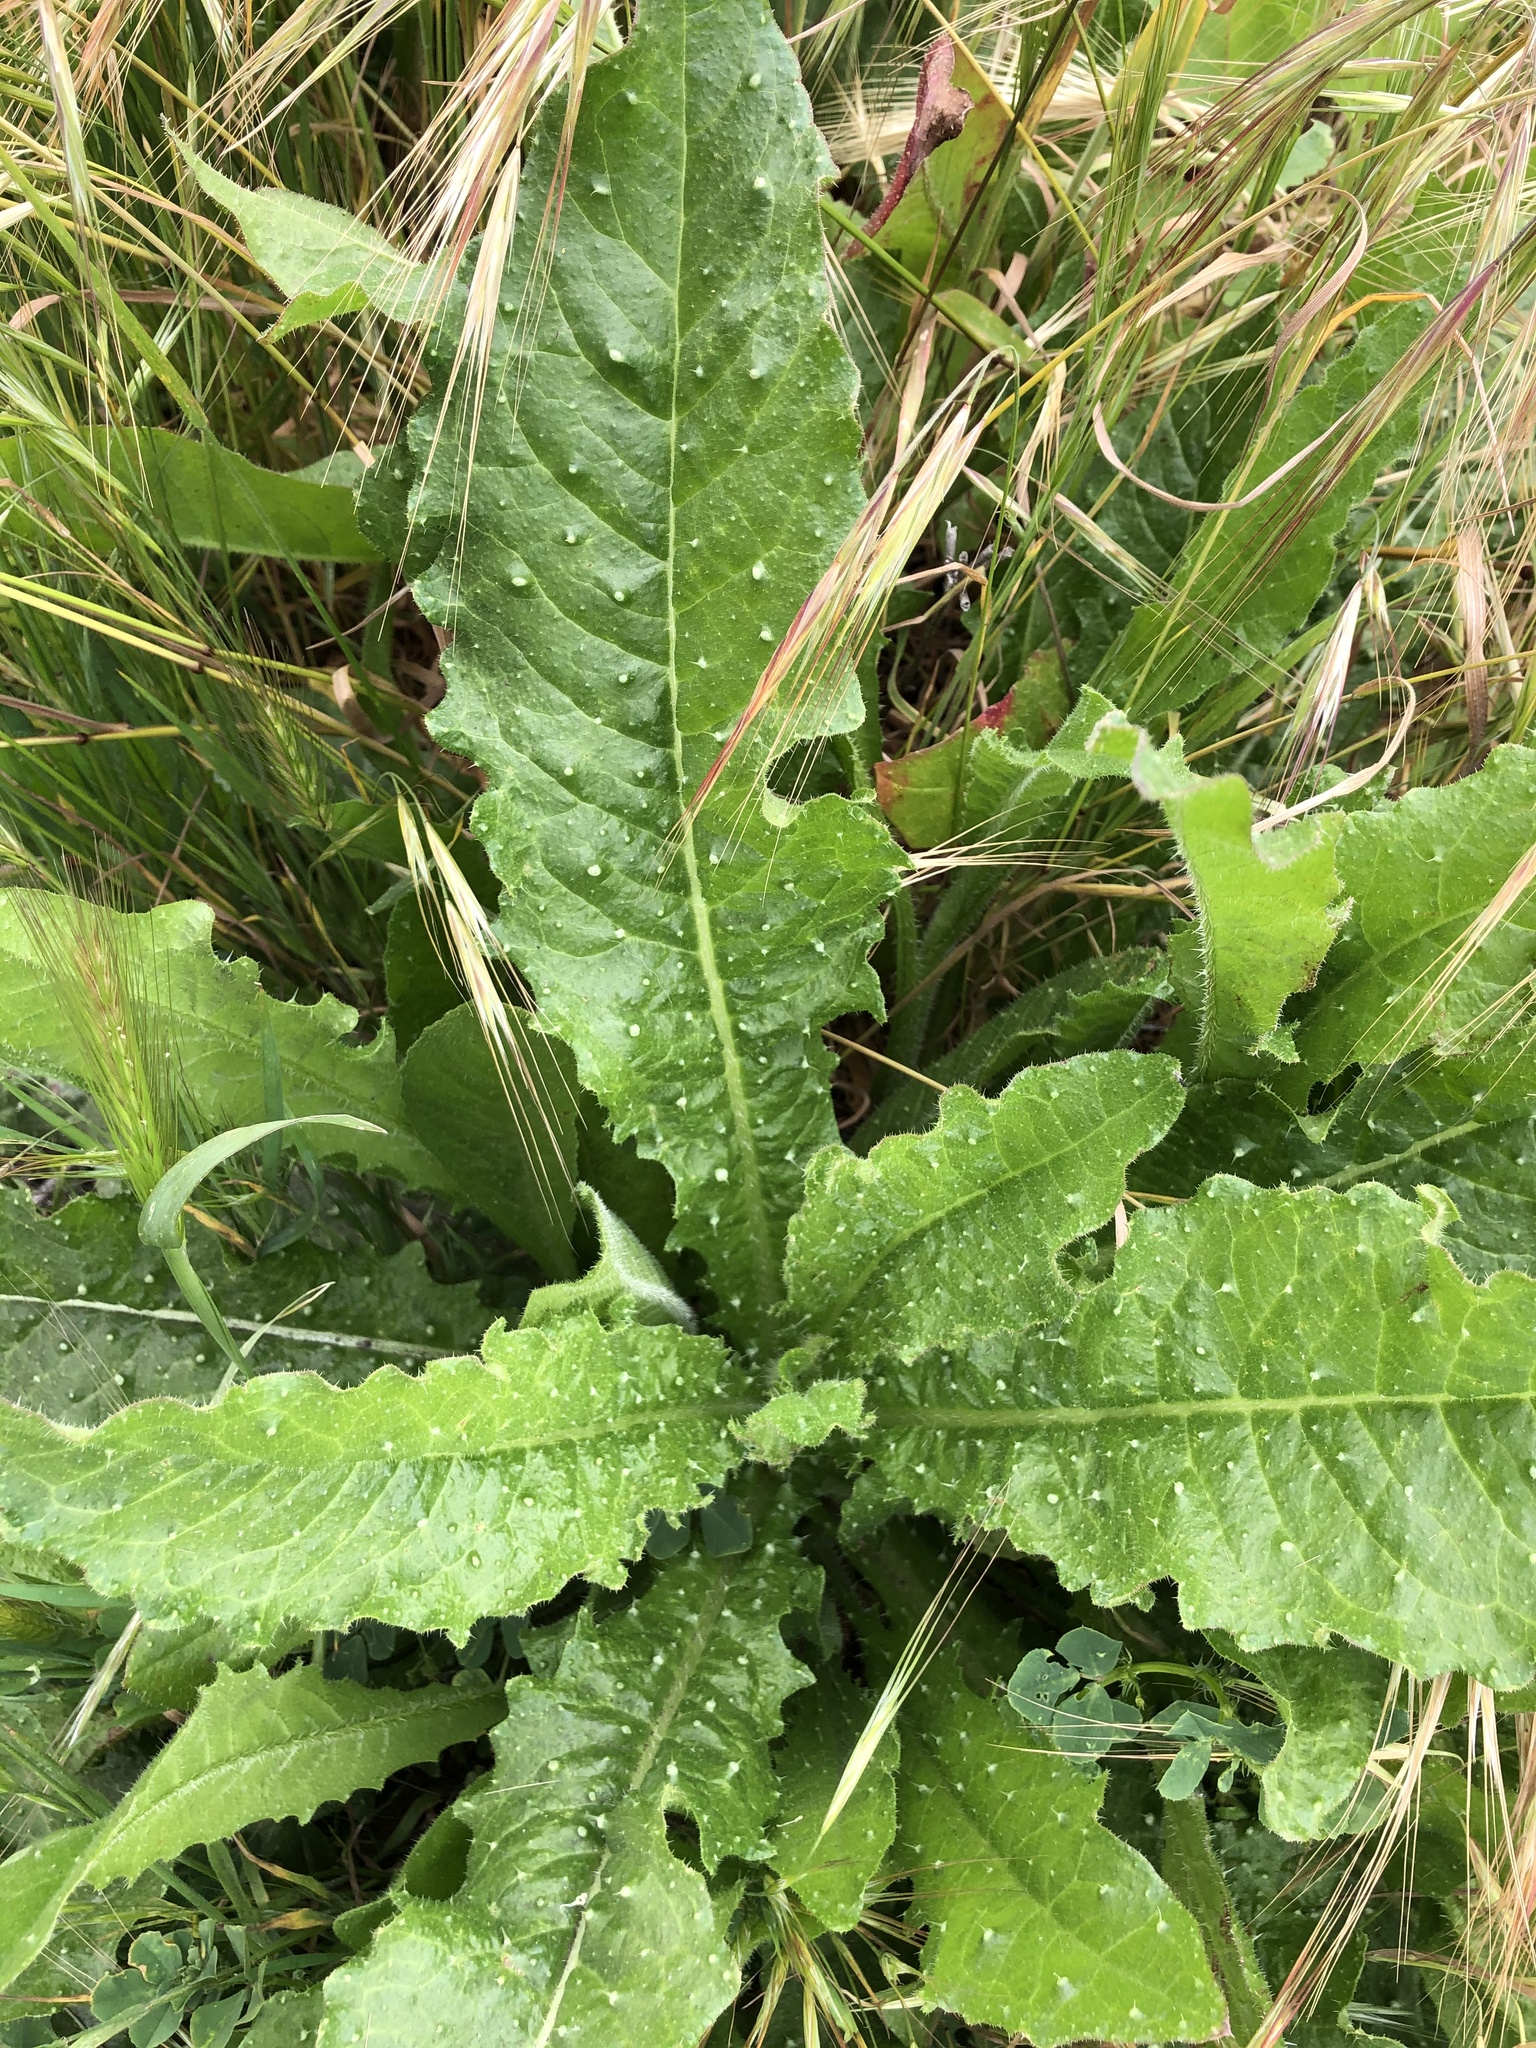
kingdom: Plantae
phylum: Tracheophyta
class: Magnoliopsida
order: Asterales
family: Asteraceae
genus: Helminthotheca
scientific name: Helminthotheca echioides
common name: Ox-tongue
